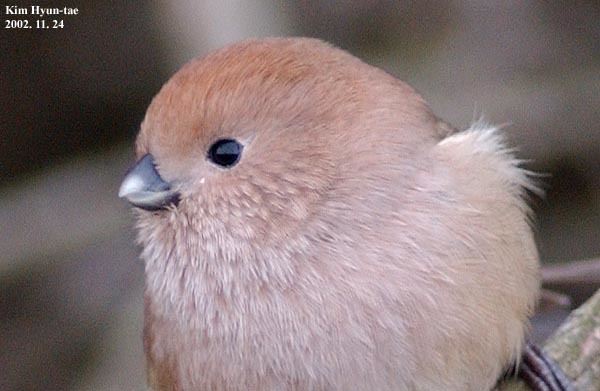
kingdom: Animalia
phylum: Chordata
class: Aves
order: Passeriformes
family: Sylviidae
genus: Sinosuthora
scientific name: Sinosuthora webbiana
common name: Vinous-throated parrotbill
